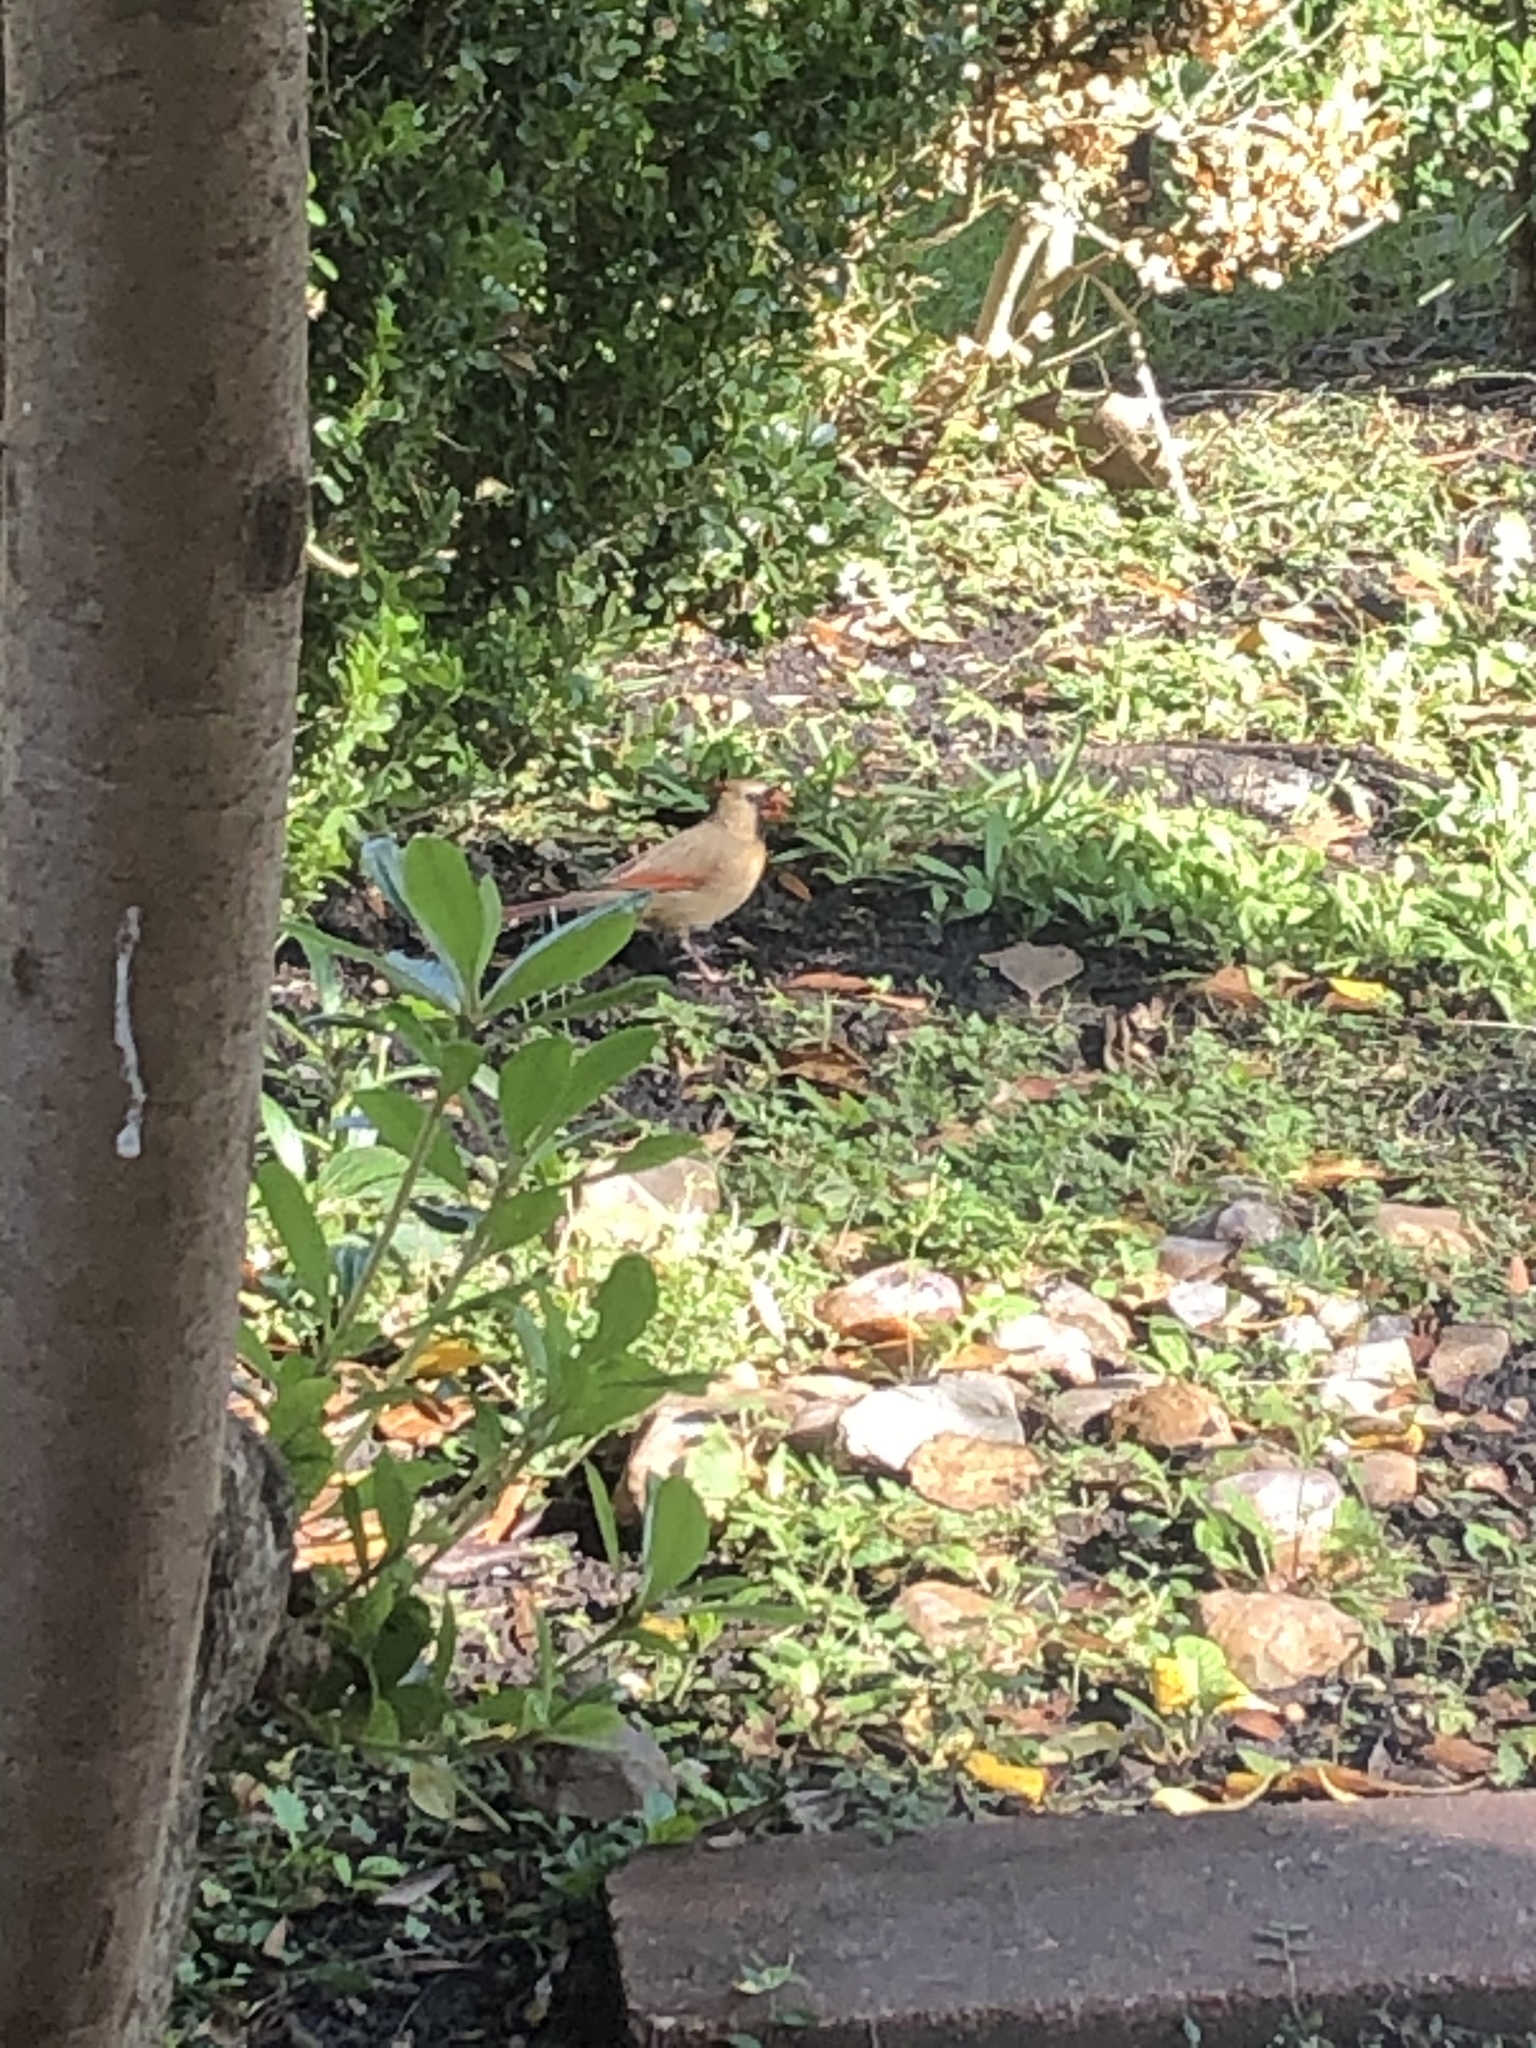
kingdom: Animalia
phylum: Chordata
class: Aves
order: Passeriformes
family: Cardinalidae
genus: Cardinalis
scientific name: Cardinalis cardinalis
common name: Northern cardinal
